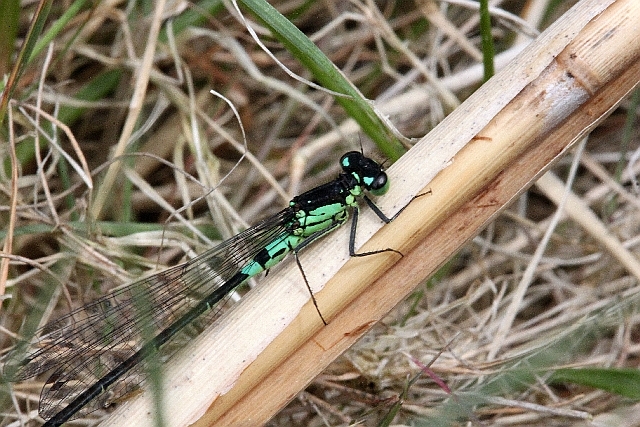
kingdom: Animalia
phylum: Arthropoda
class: Insecta
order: Odonata
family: Coenagrionidae
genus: Coenagrion
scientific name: Coenagrion armatum
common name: Dark bluet
